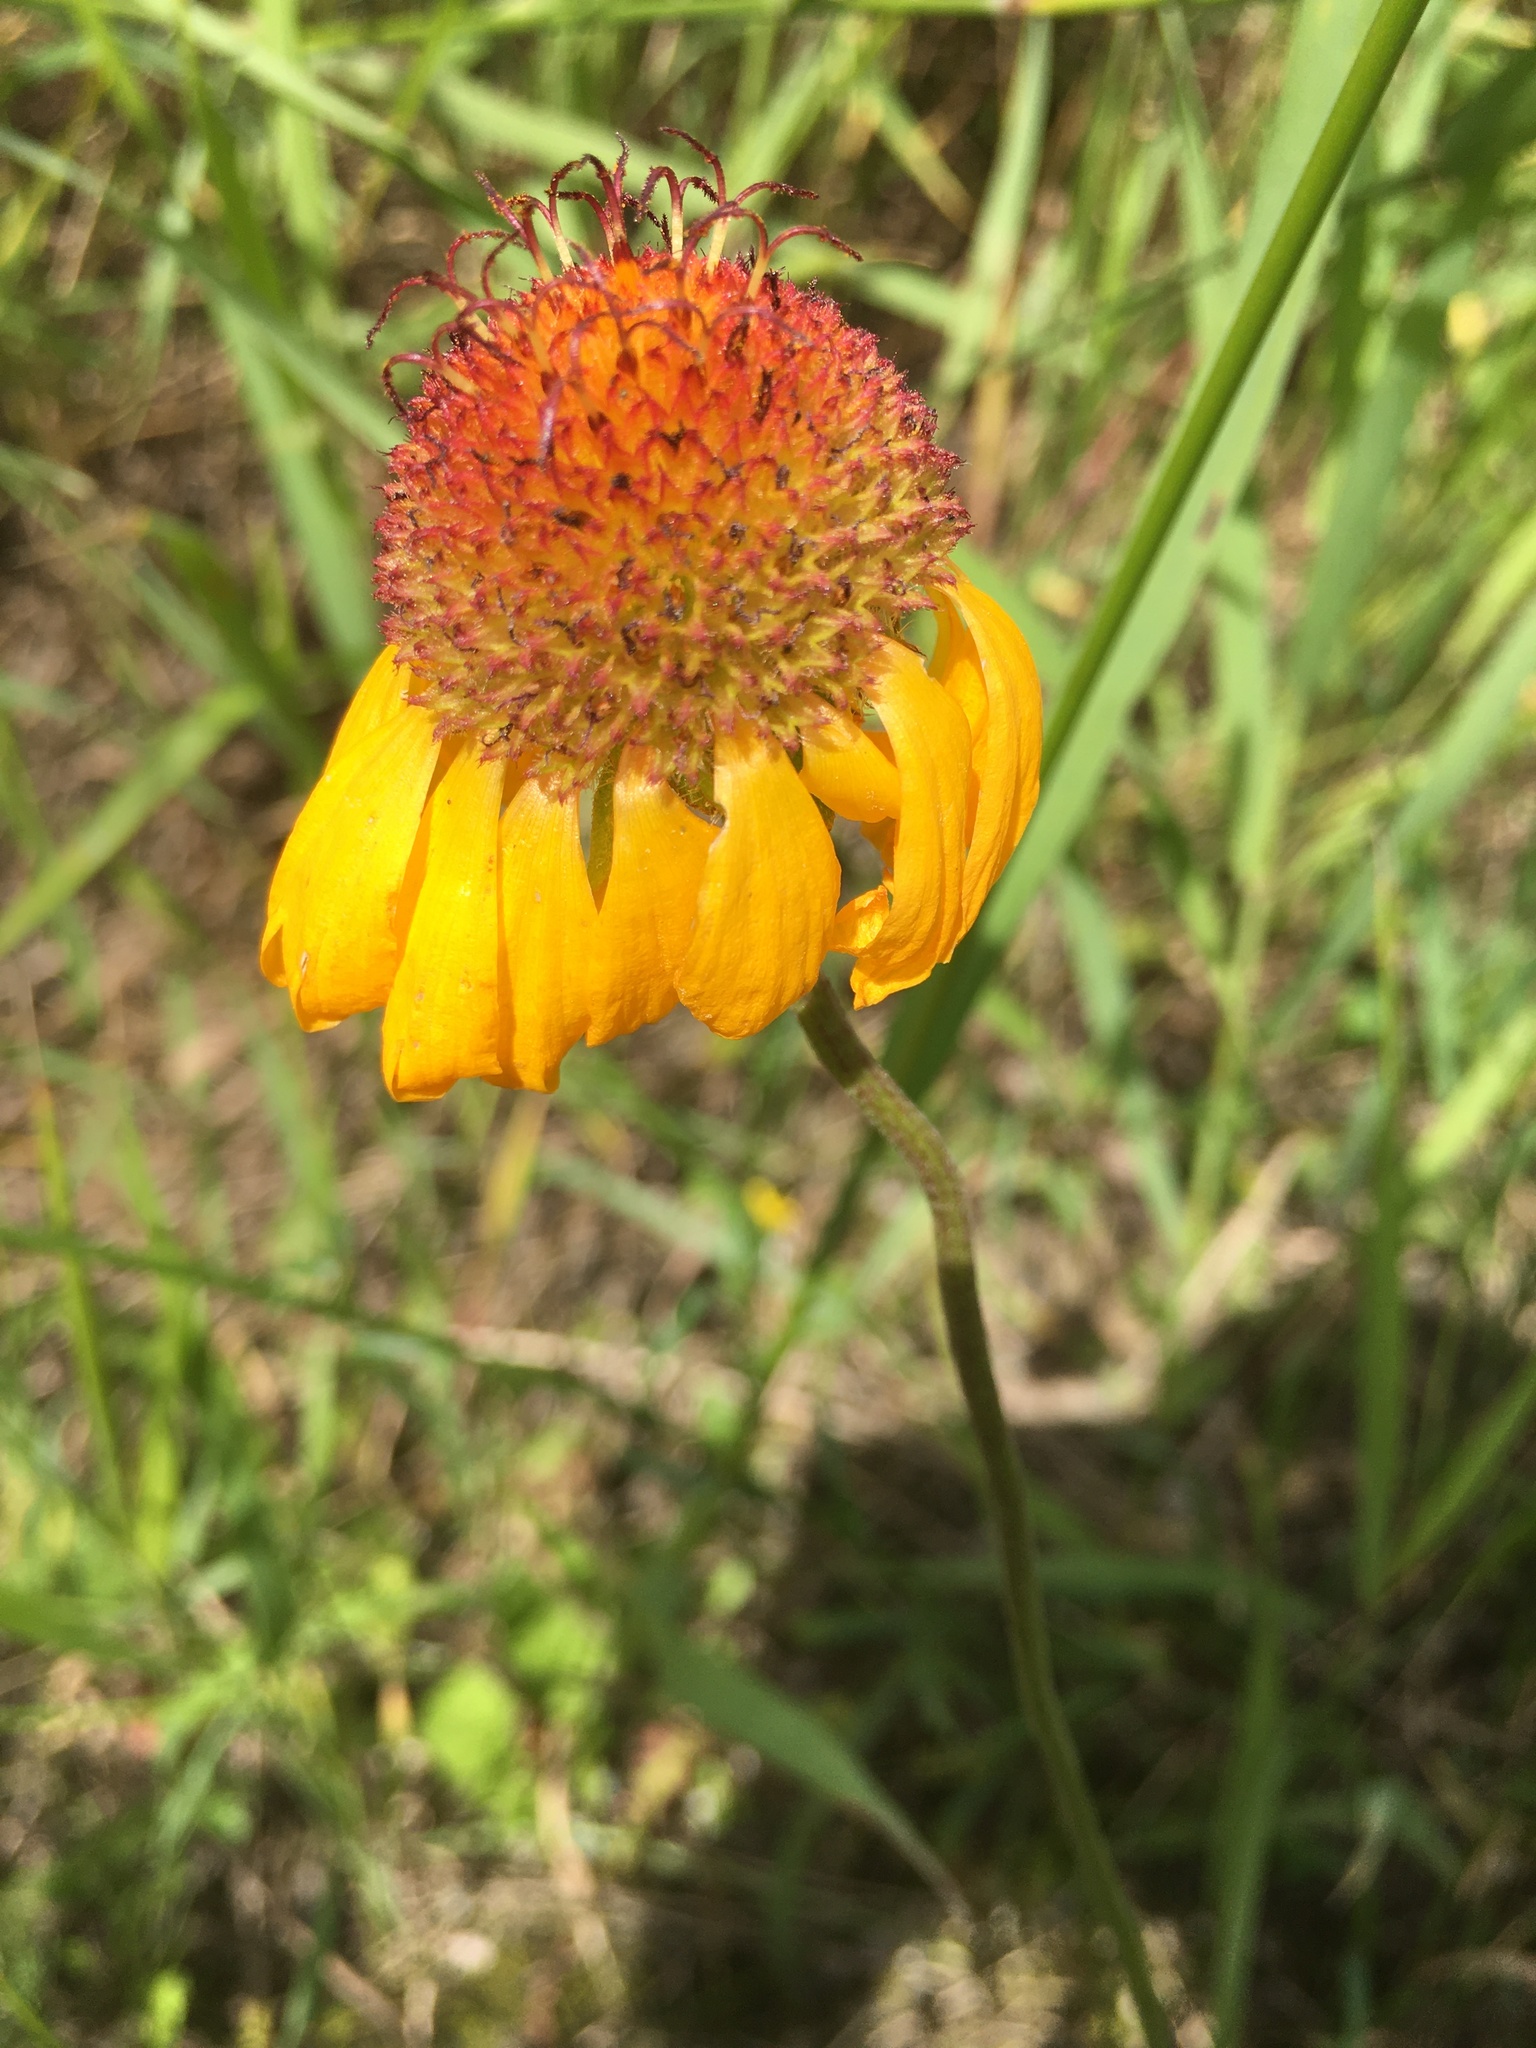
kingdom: Plantae
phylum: Tracheophyta
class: Magnoliopsida
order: Asterales
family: Asteraceae
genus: Gaillardia
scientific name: Gaillardia aristata
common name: Blanket-flower
